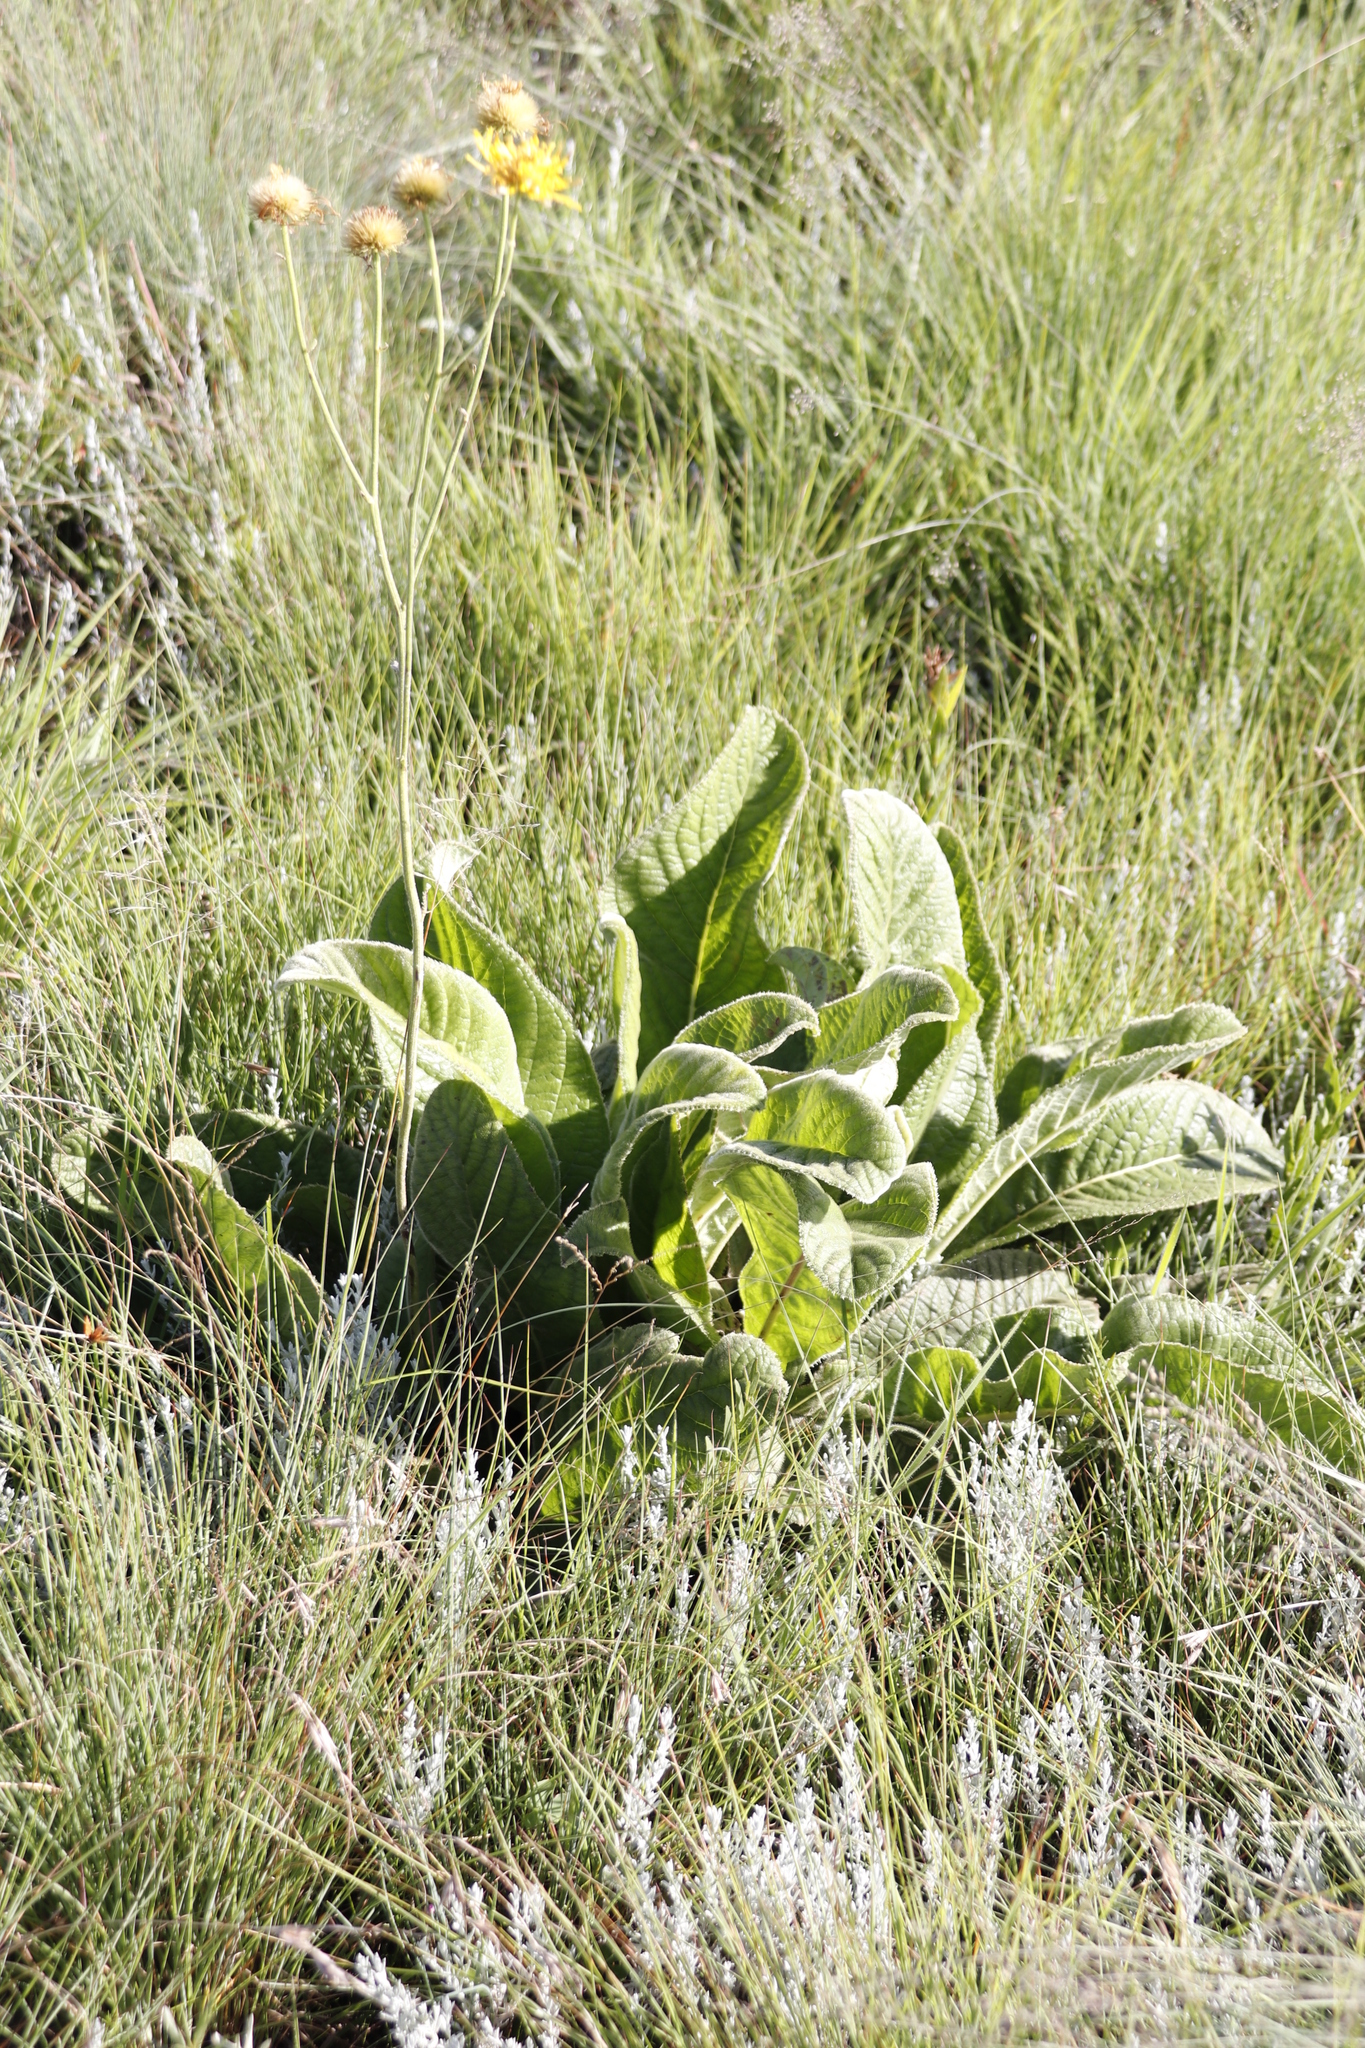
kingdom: Plantae
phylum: Tracheophyta
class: Magnoliopsida
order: Asterales
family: Asteraceae
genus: Berkheya
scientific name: Berkheya setifera
